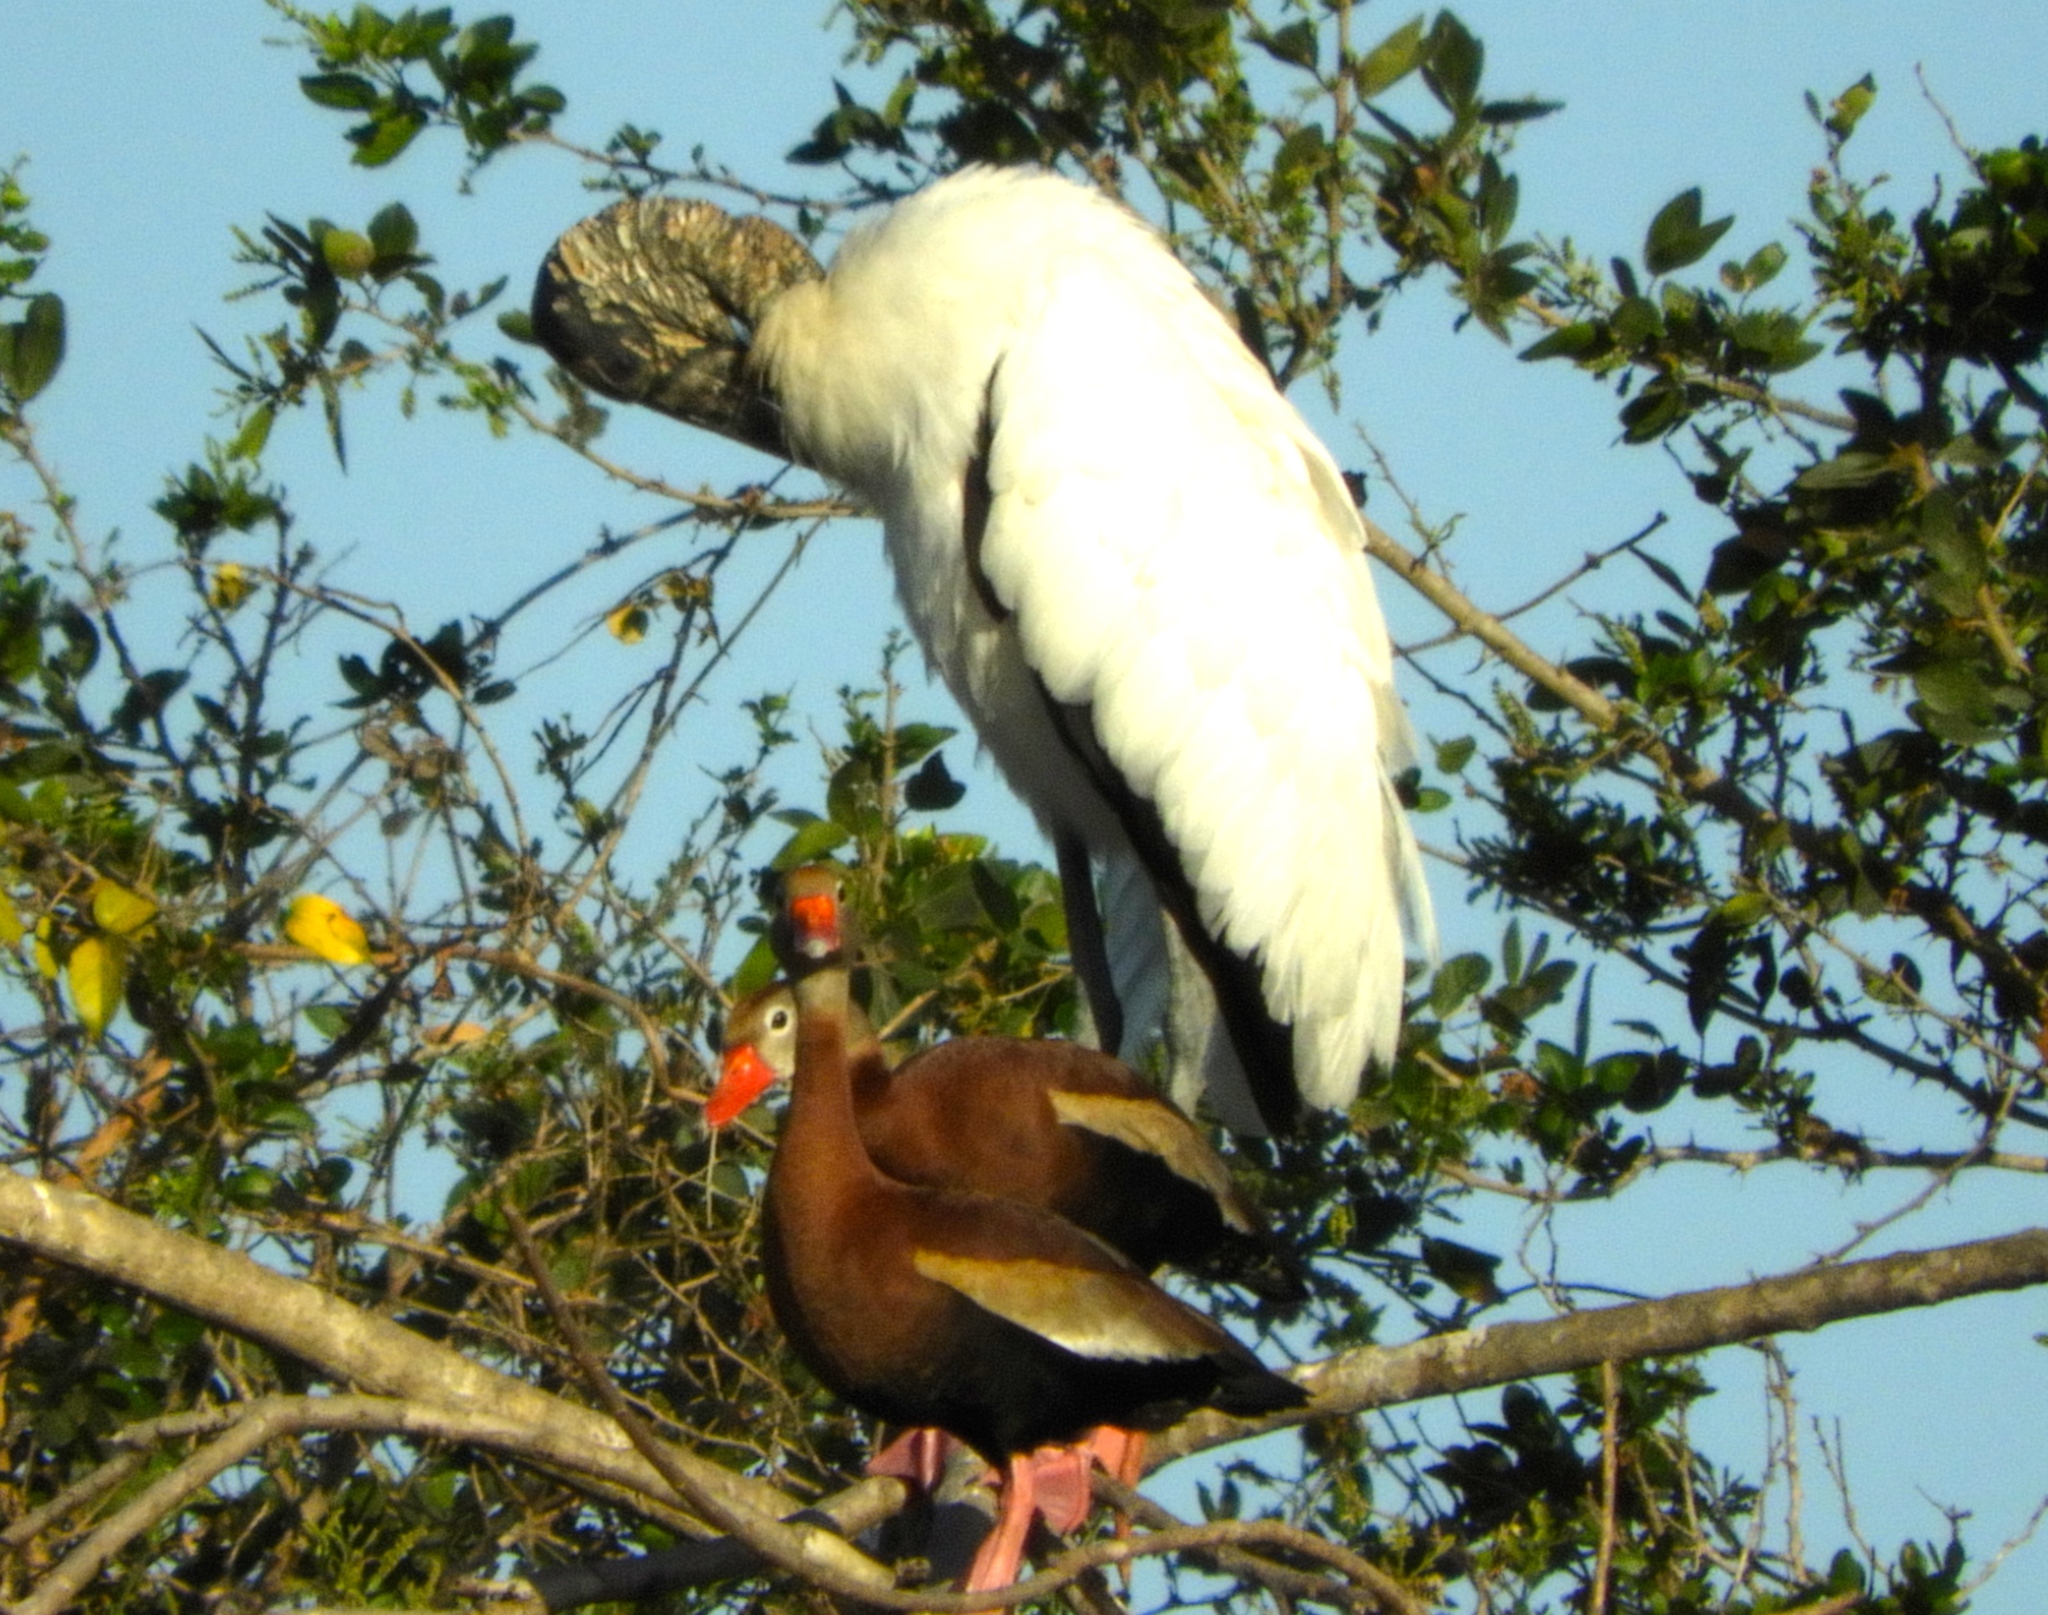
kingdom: Animalia
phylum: Chordata
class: Aves
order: Anseriformes
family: Anatidae
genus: Dendrocygna
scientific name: Dendrocygna autumnalis
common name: Black-bellied whistling duck
